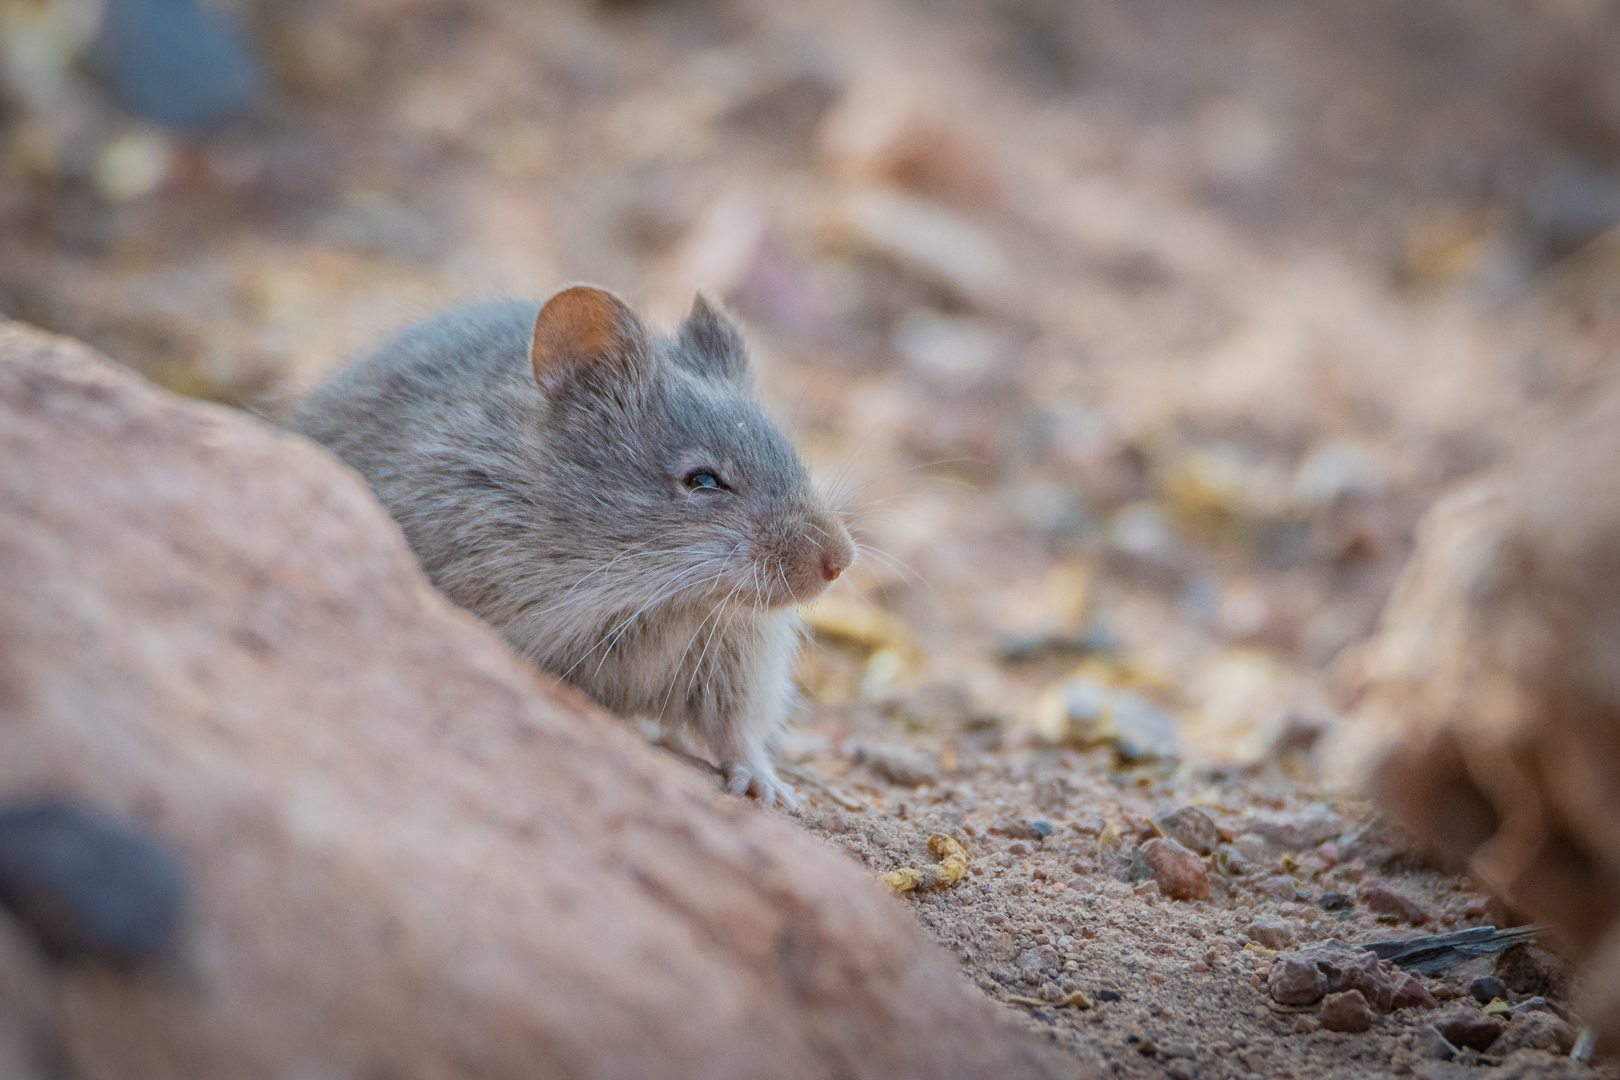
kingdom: Animalia
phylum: Chordata
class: Mammalia
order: Rodentia
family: Cricetidae
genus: Abrothrix
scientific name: Abrothrix andinus
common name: Andean akodont
